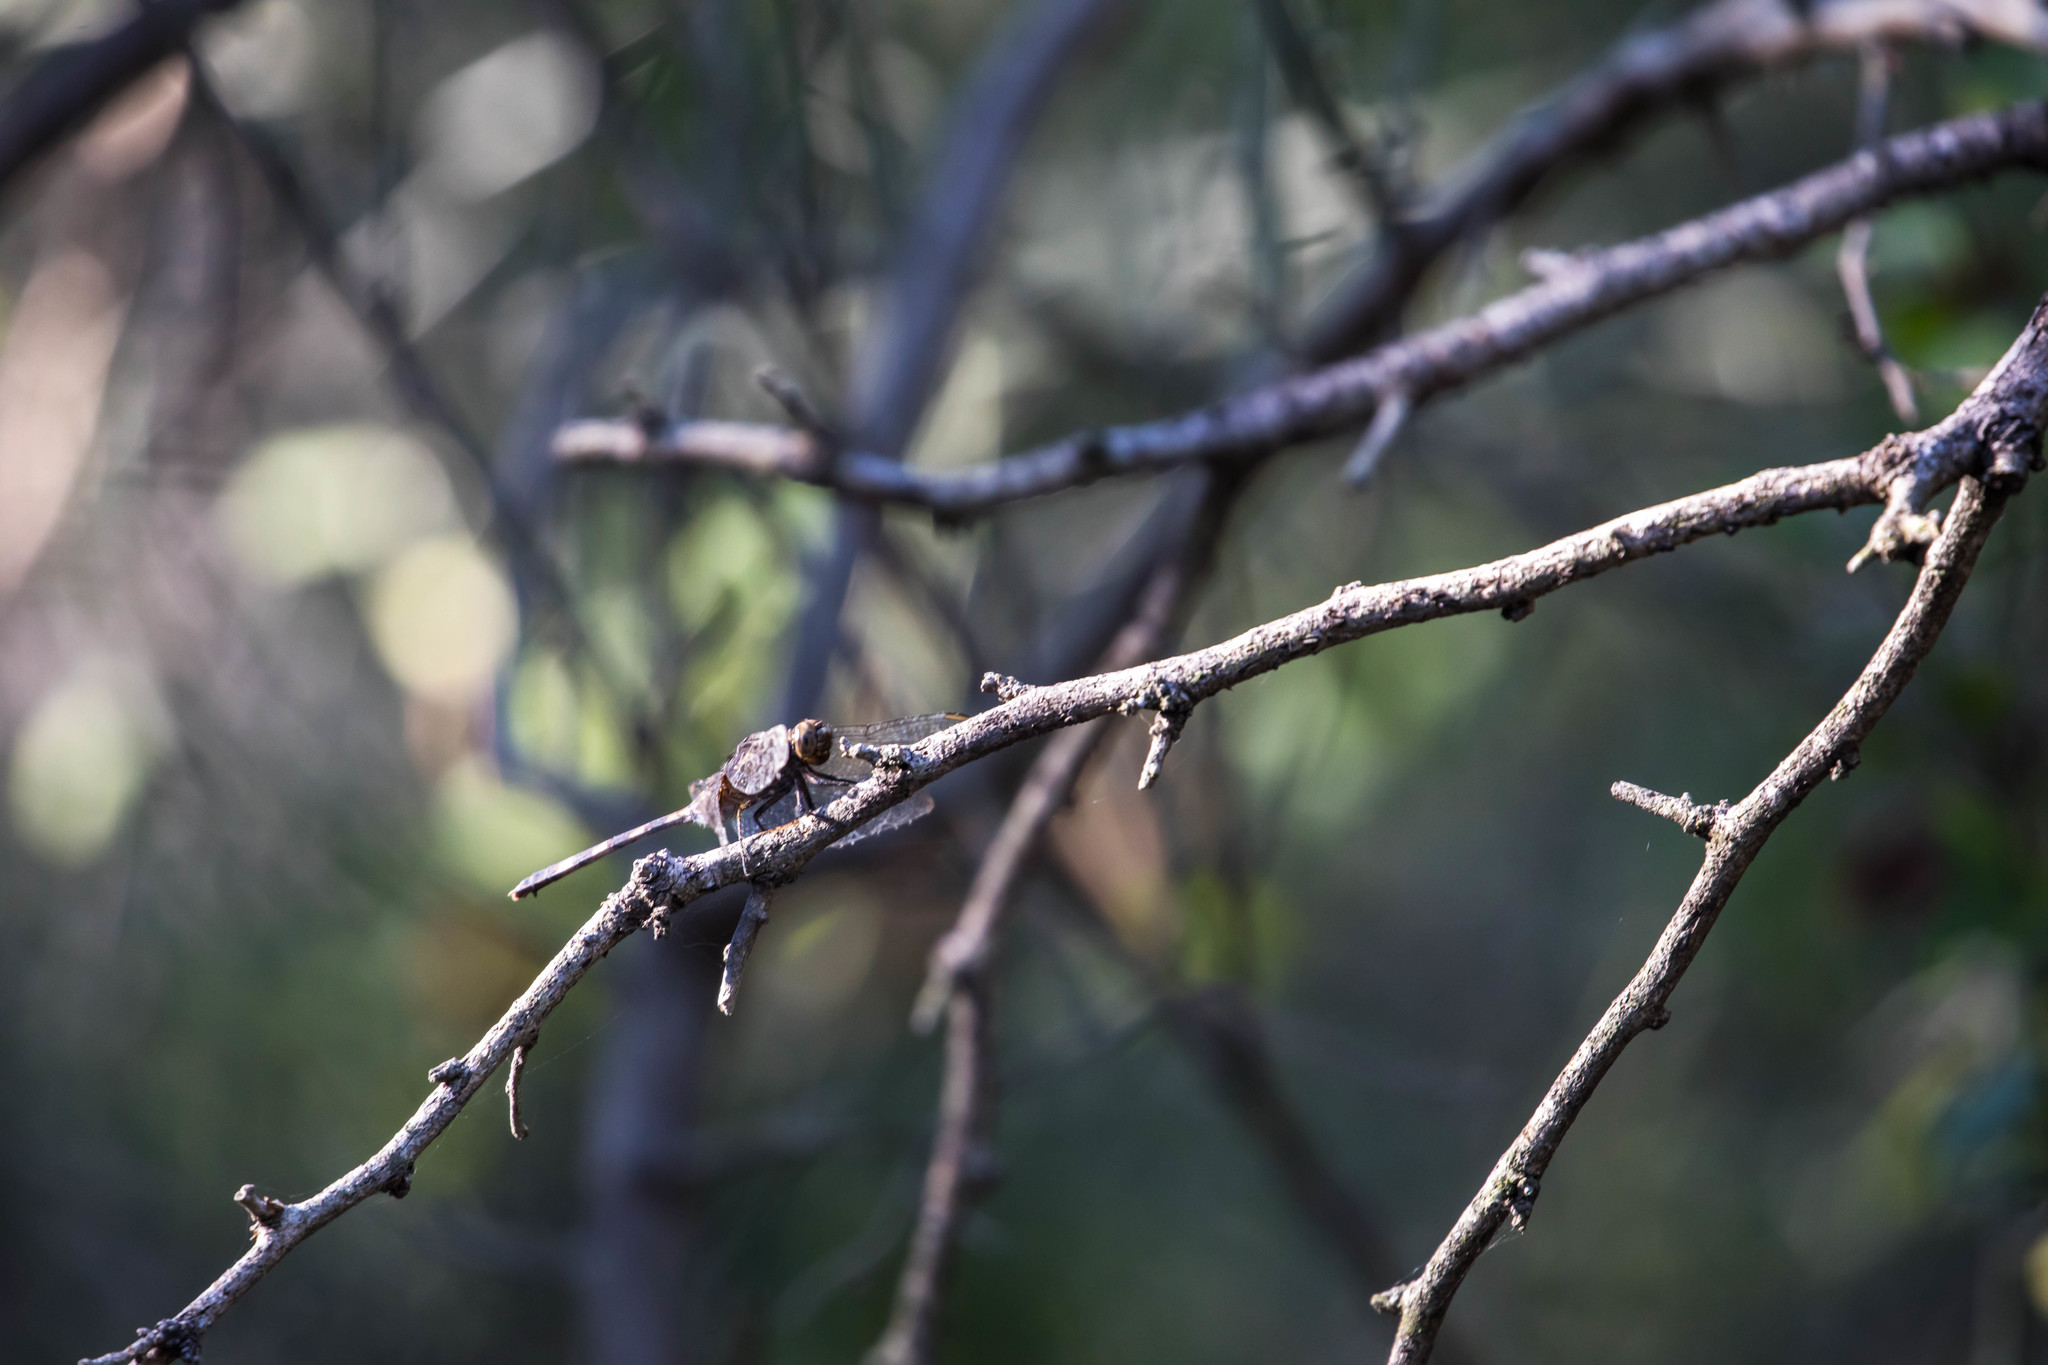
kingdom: Animalia
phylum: Arthropoda
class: Insecta
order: Odonata
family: Libellulidae
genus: Erythemis
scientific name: Erythemis plebeja
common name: Pin-tailed pondhawk
